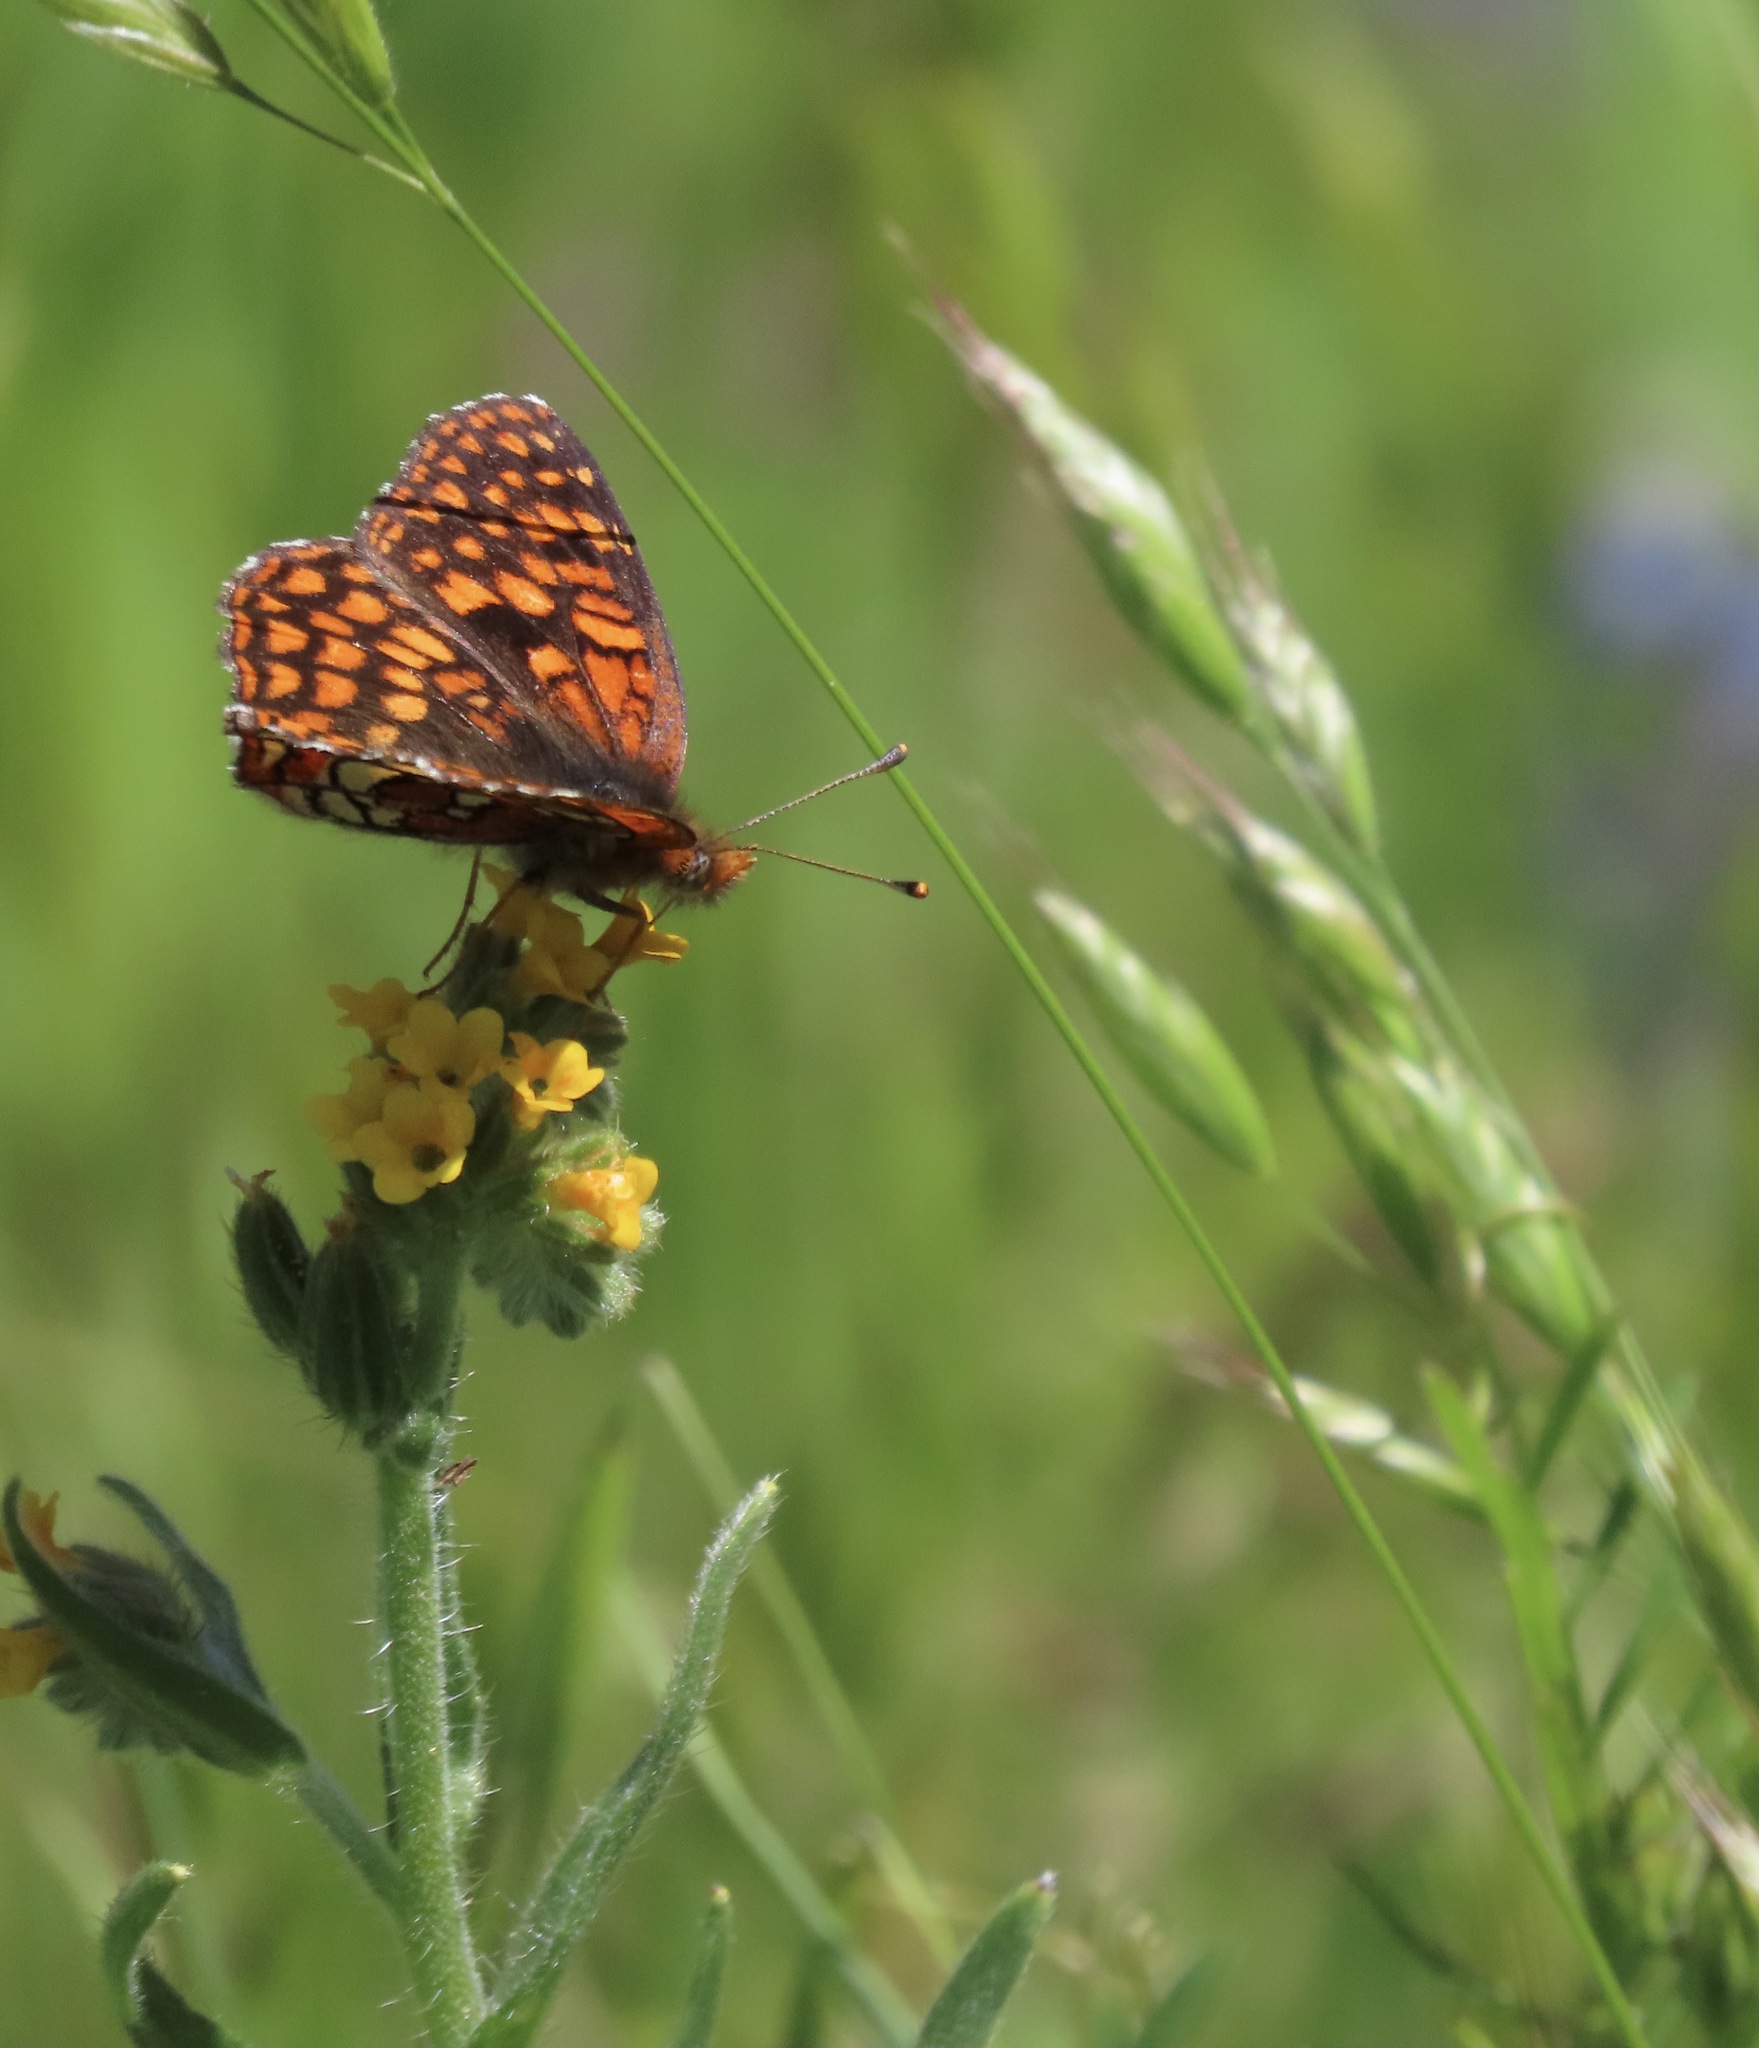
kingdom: Animalia
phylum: Arthropoda
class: Insecta
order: Lepidoptera
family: Nymphalidae
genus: Chlosyne
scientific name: Chlosyne palla
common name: Northern checkerspot
